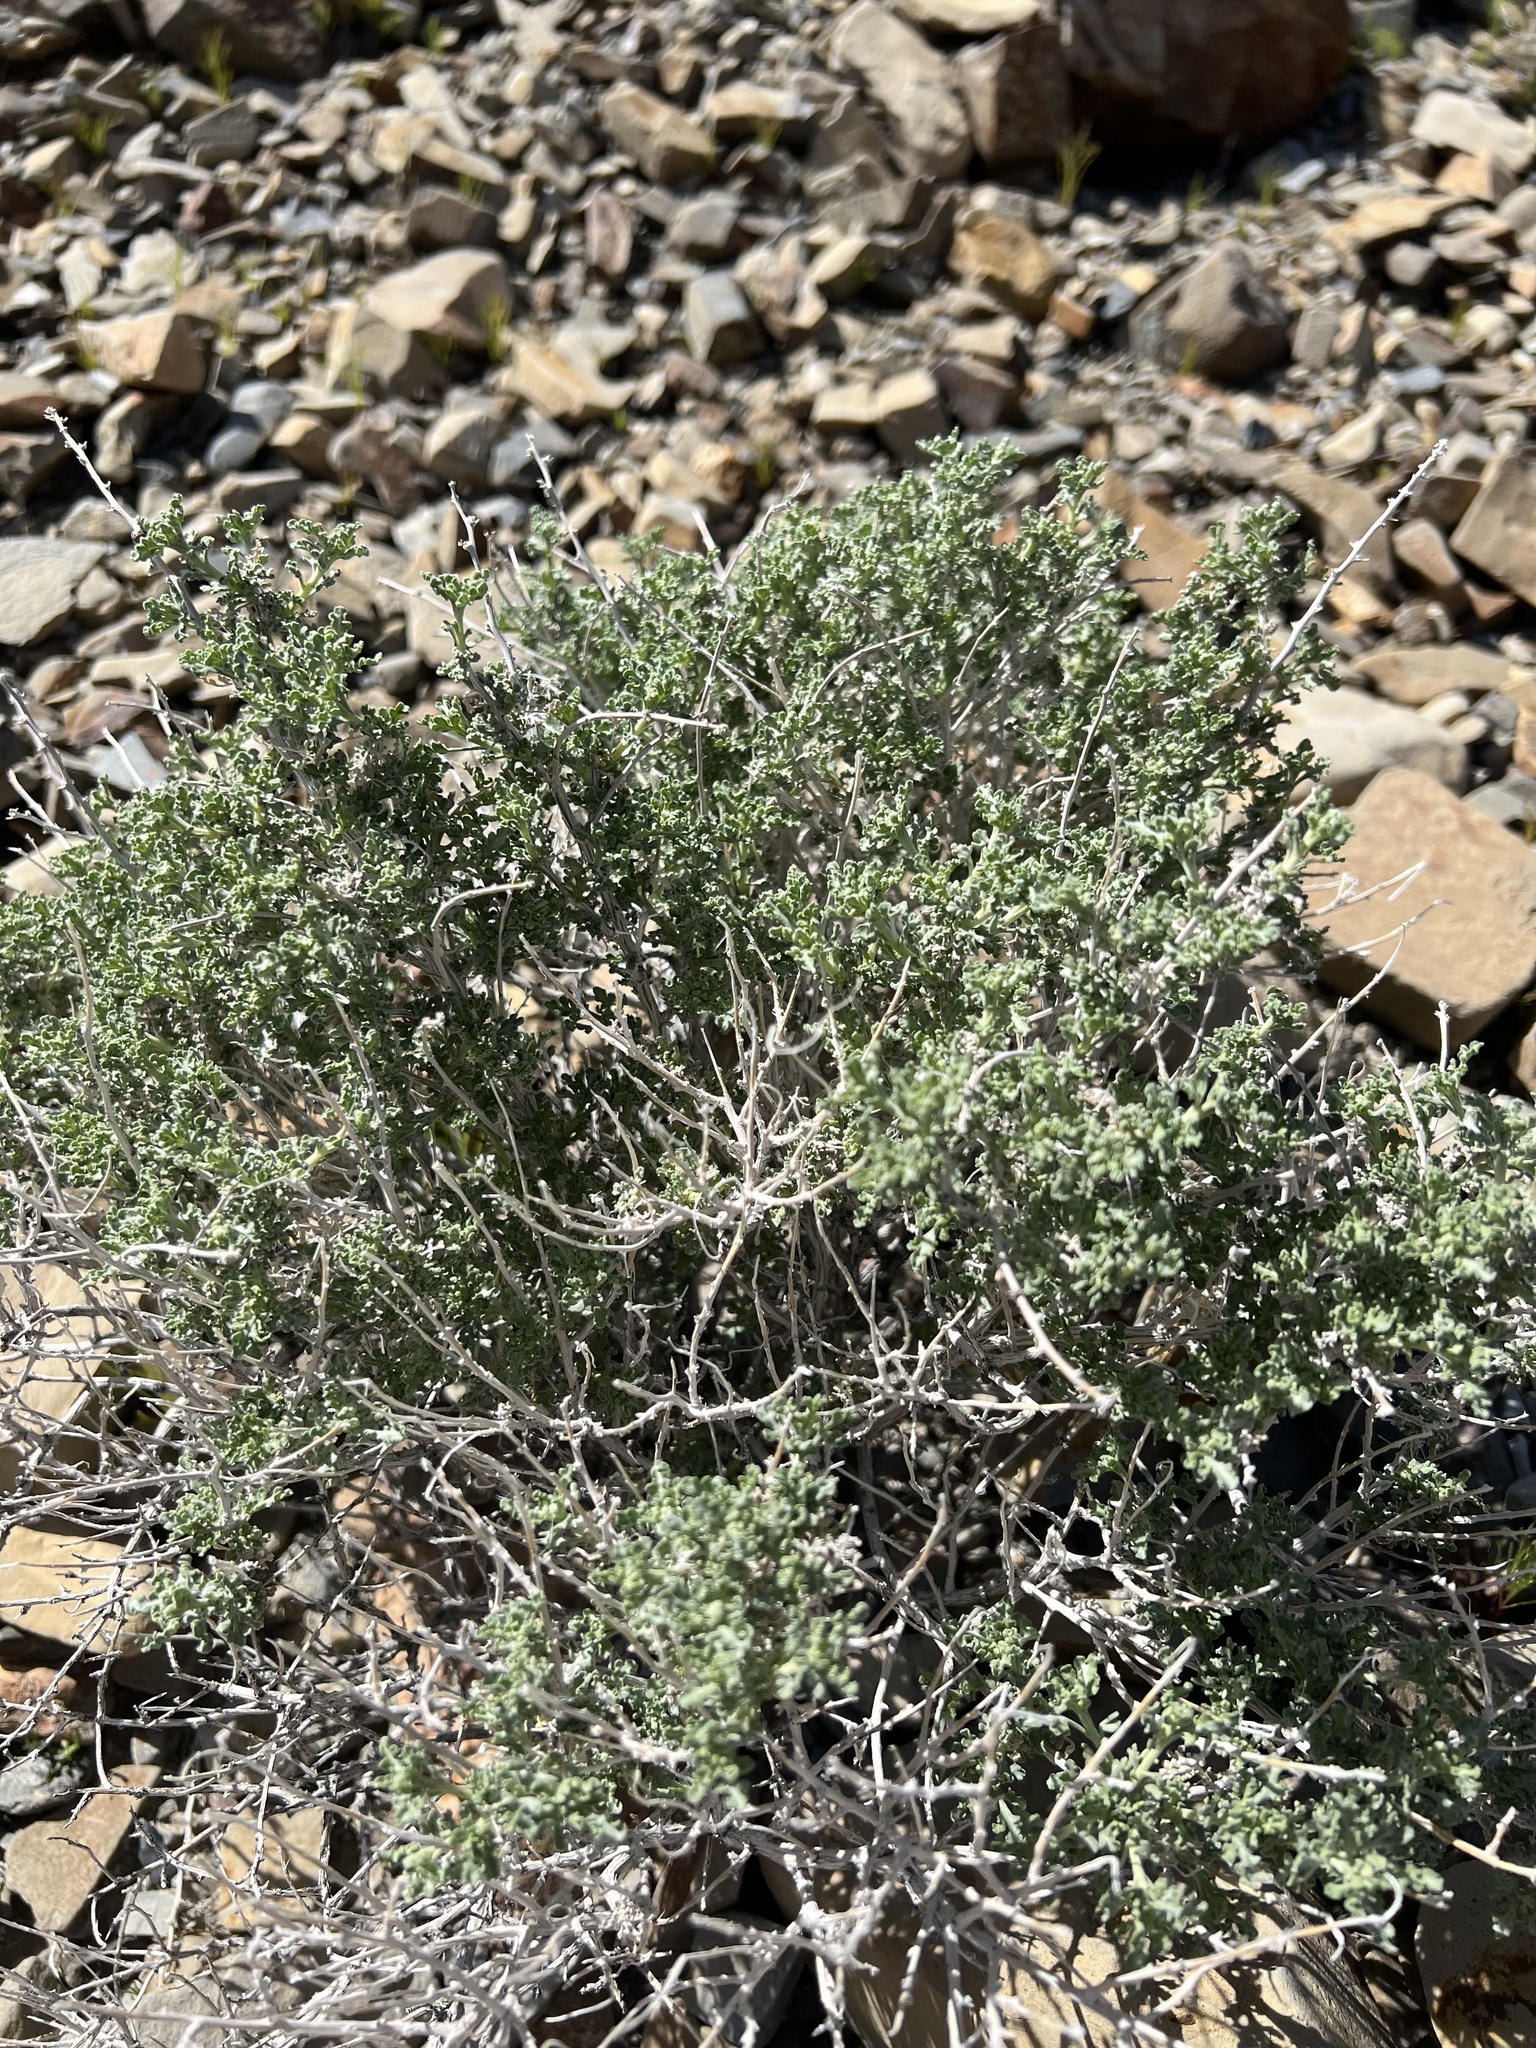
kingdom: Plantae
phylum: Tracheophyta
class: Magnoliopsida
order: Asterales
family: Asteraceae
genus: Ambrosia
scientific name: Ambrosia dumosa
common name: Bur-sage
